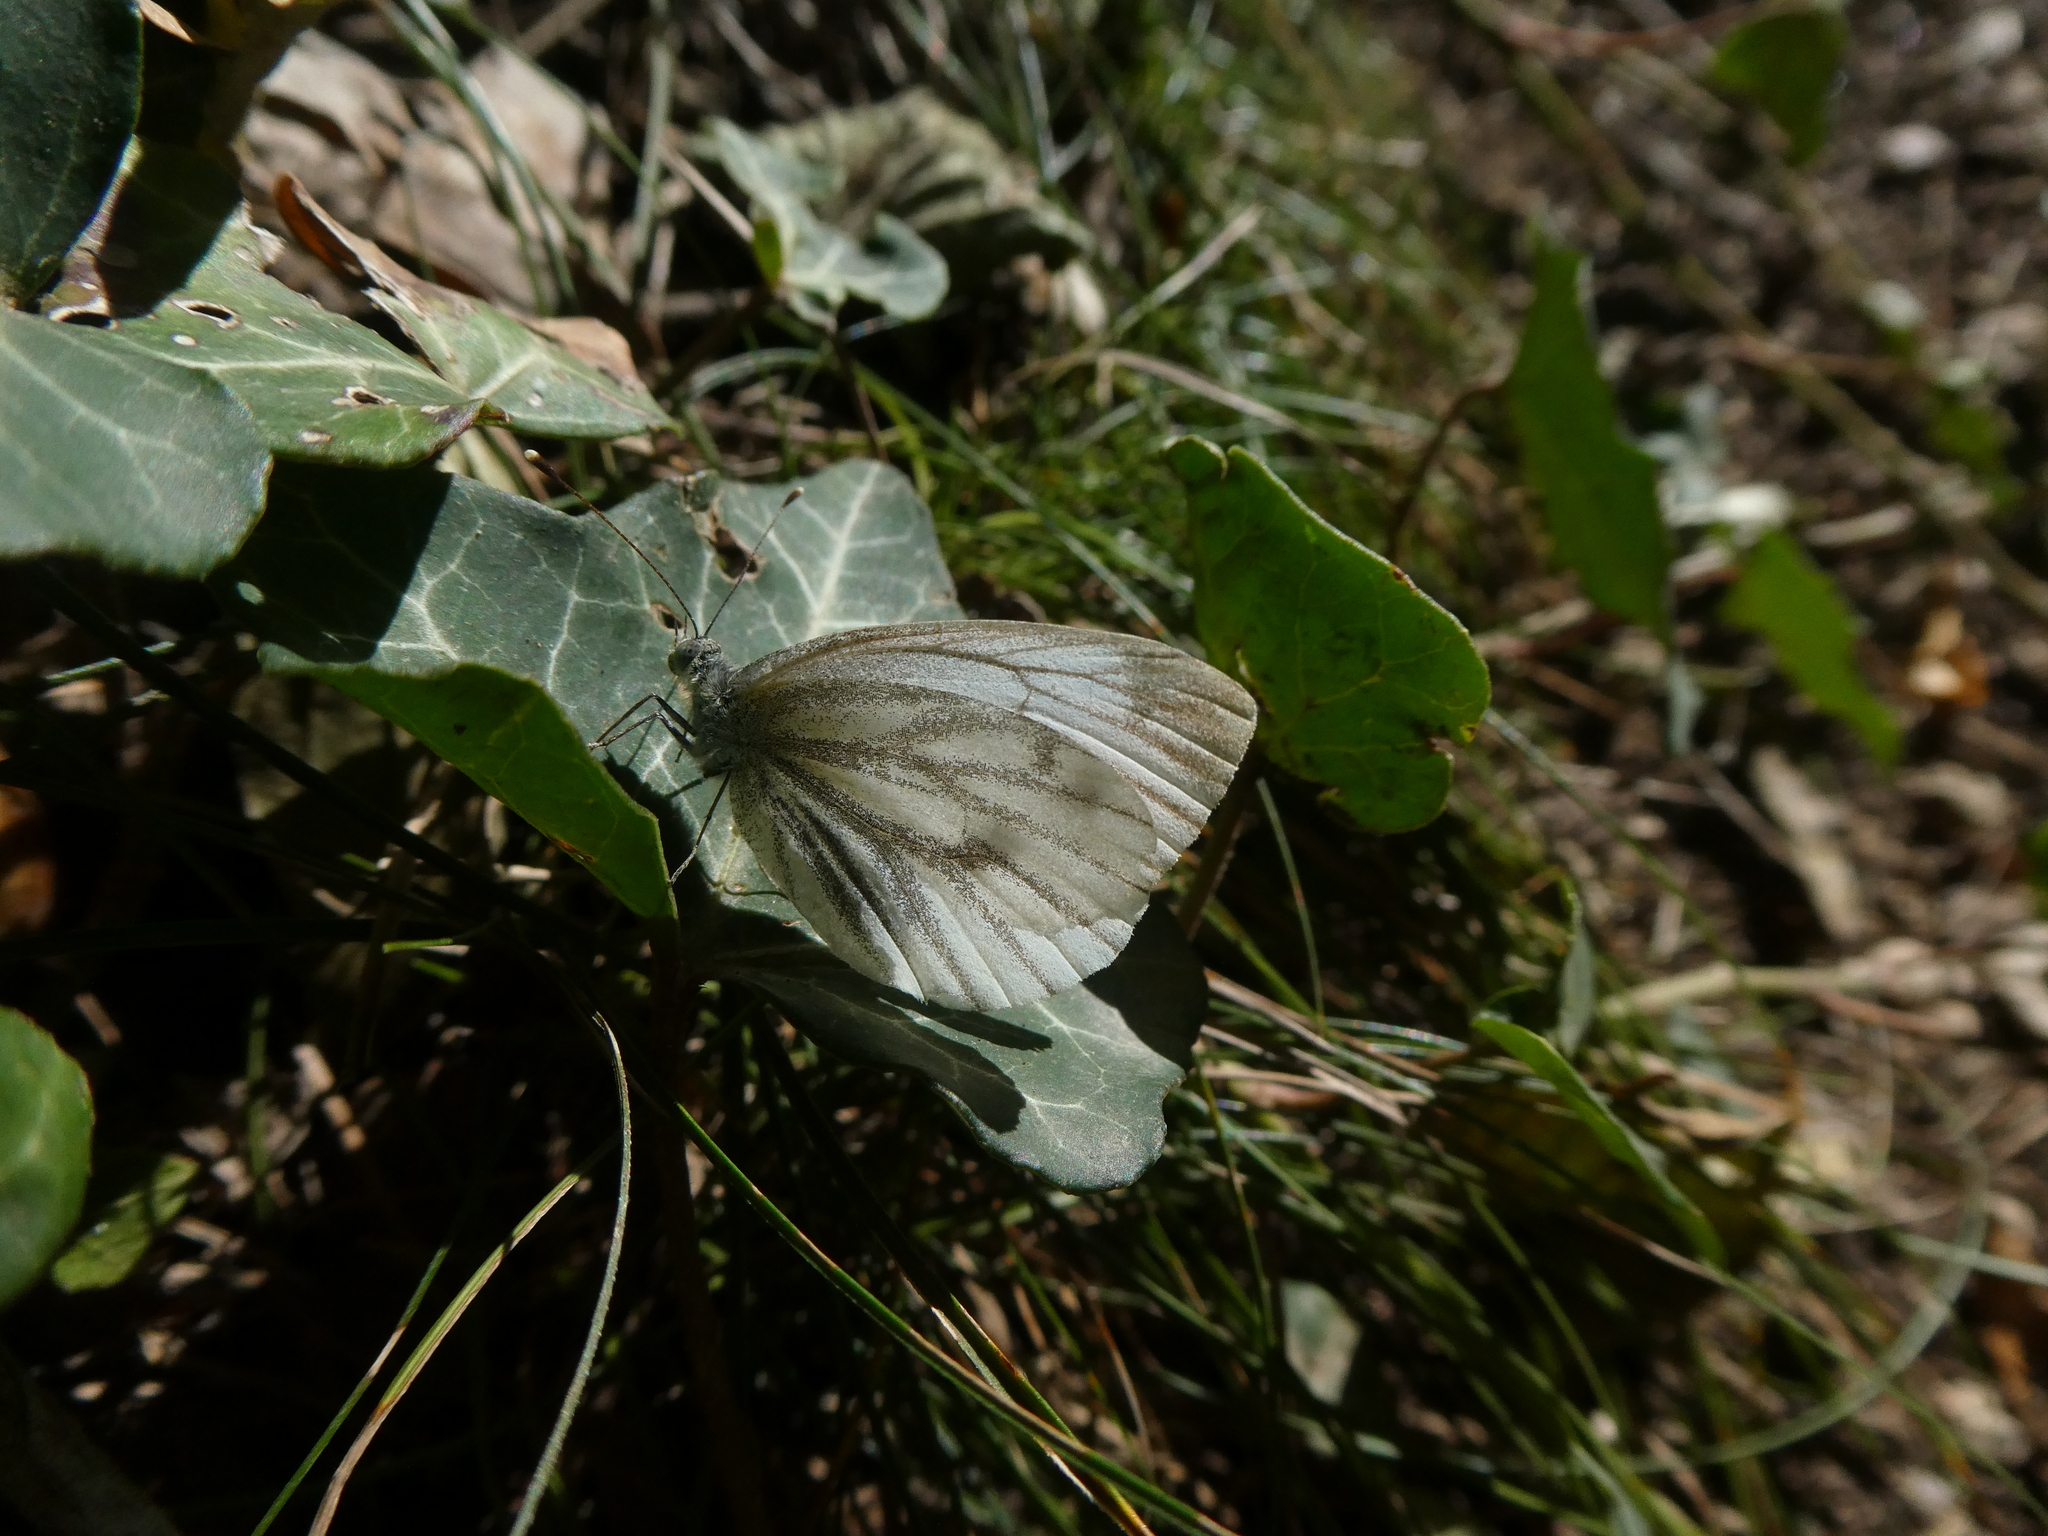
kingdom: Animalia
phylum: Arthropoda
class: Insecta
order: Lepidoptera
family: Pieridae
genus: Pieris
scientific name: Pieris napi
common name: Green-veined white
